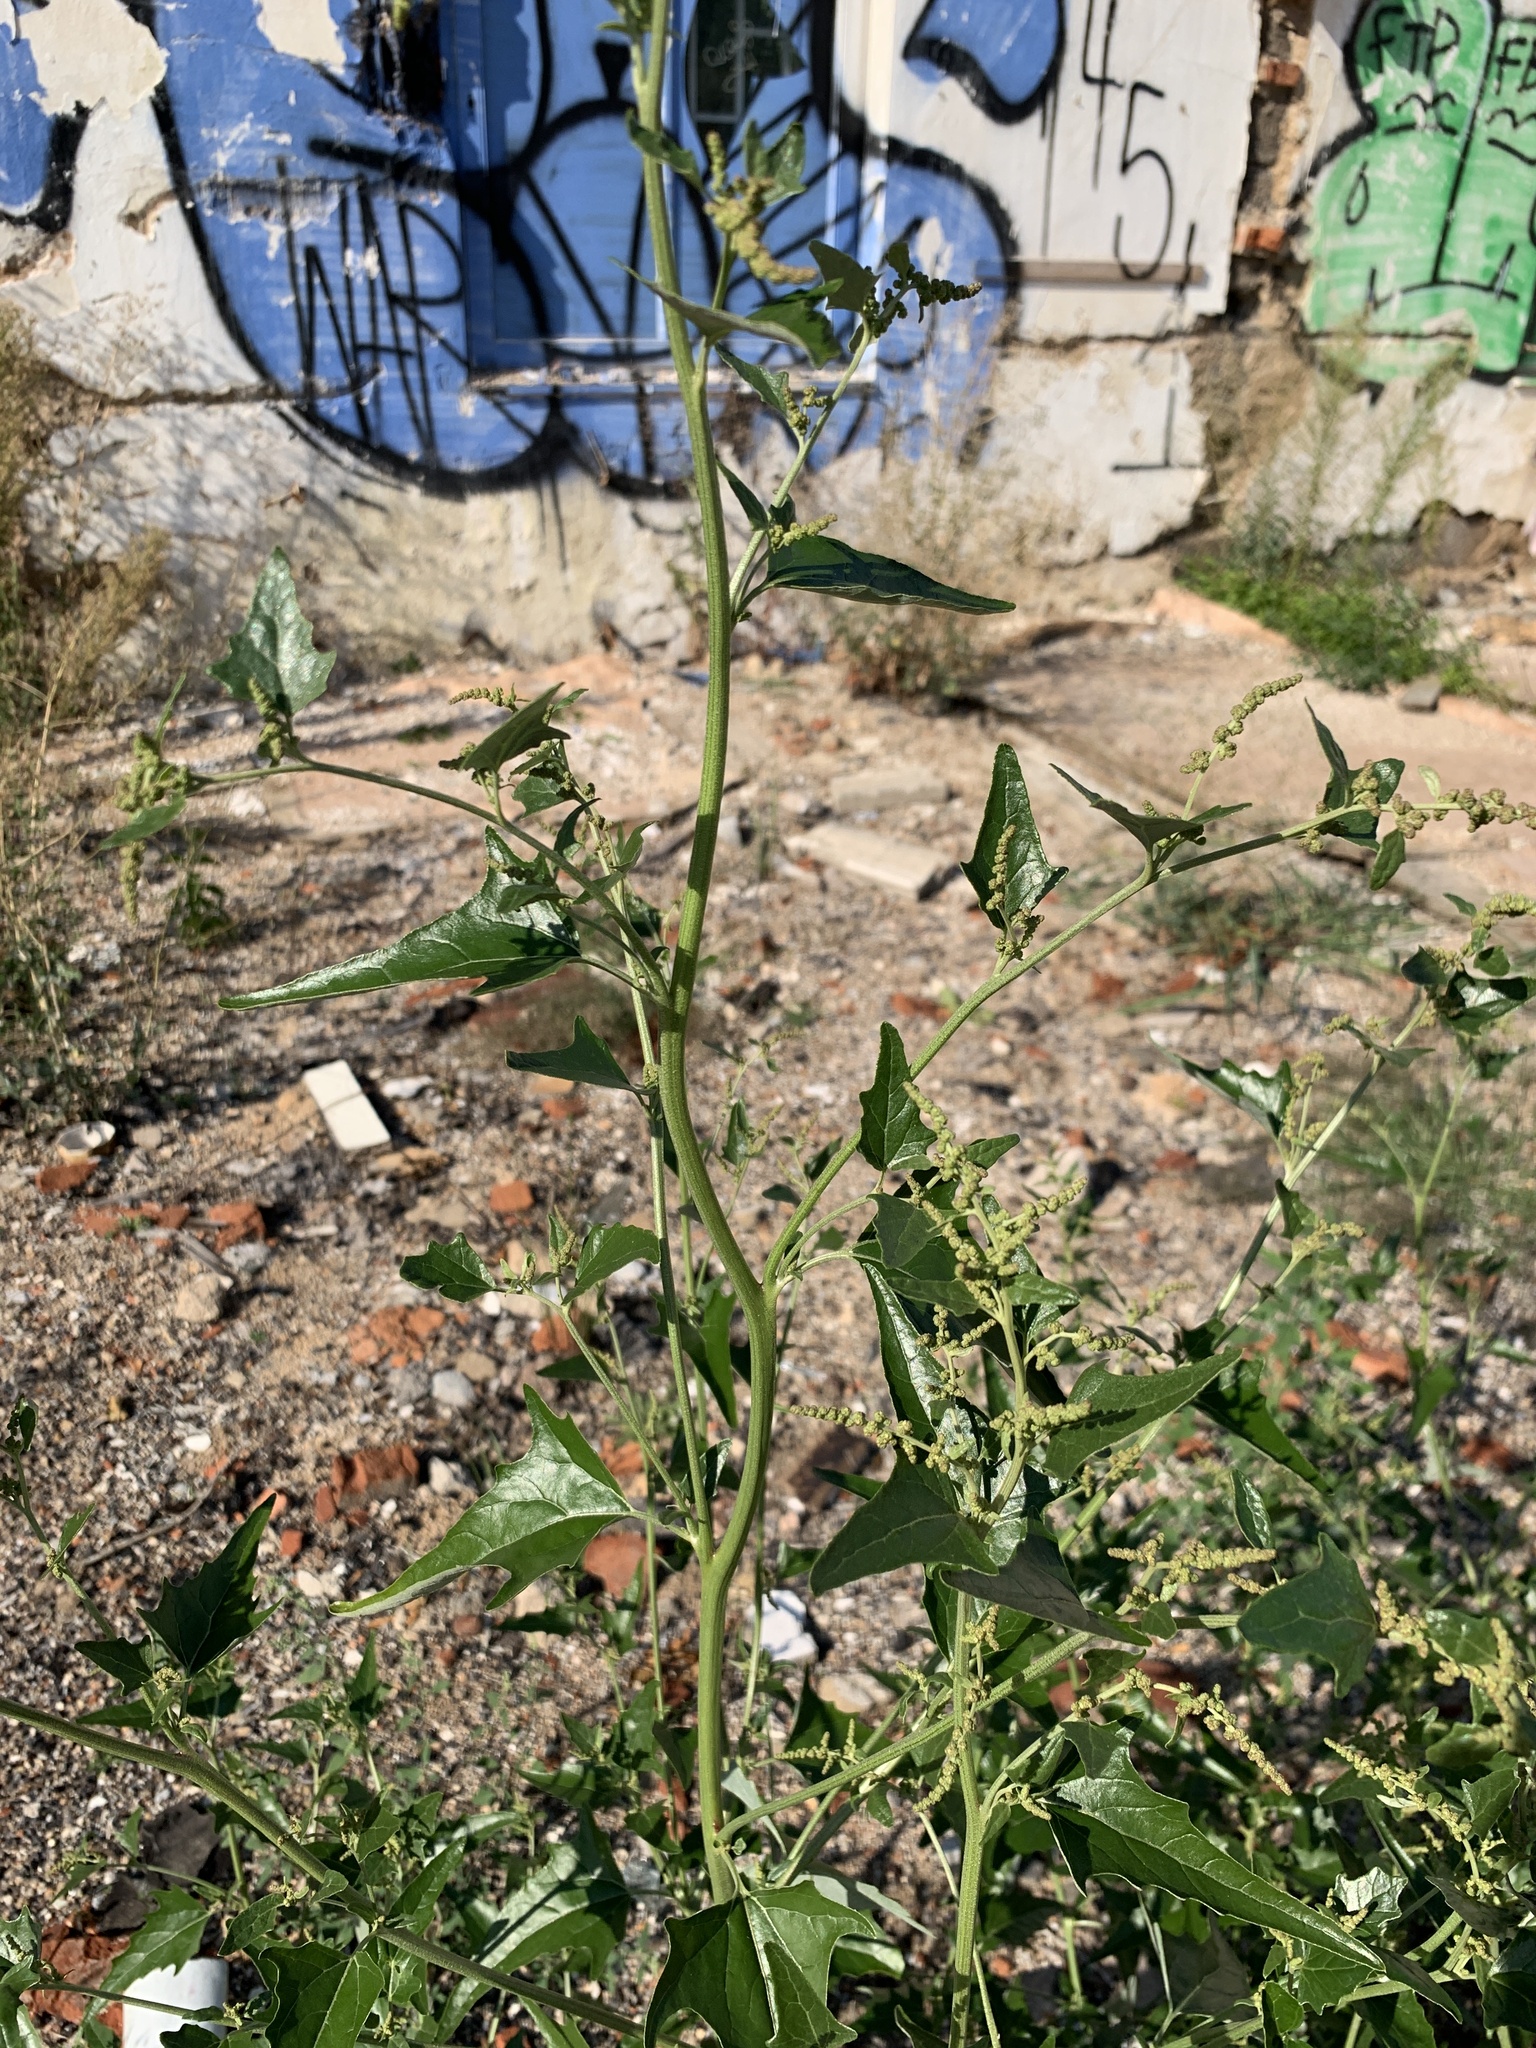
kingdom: Plantae
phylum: Tracheophyta
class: Magnoliopsida
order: Caryophyllales
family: Amaranthaceae
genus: Atriplex
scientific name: Atriplex sagittata
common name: Purple orache
